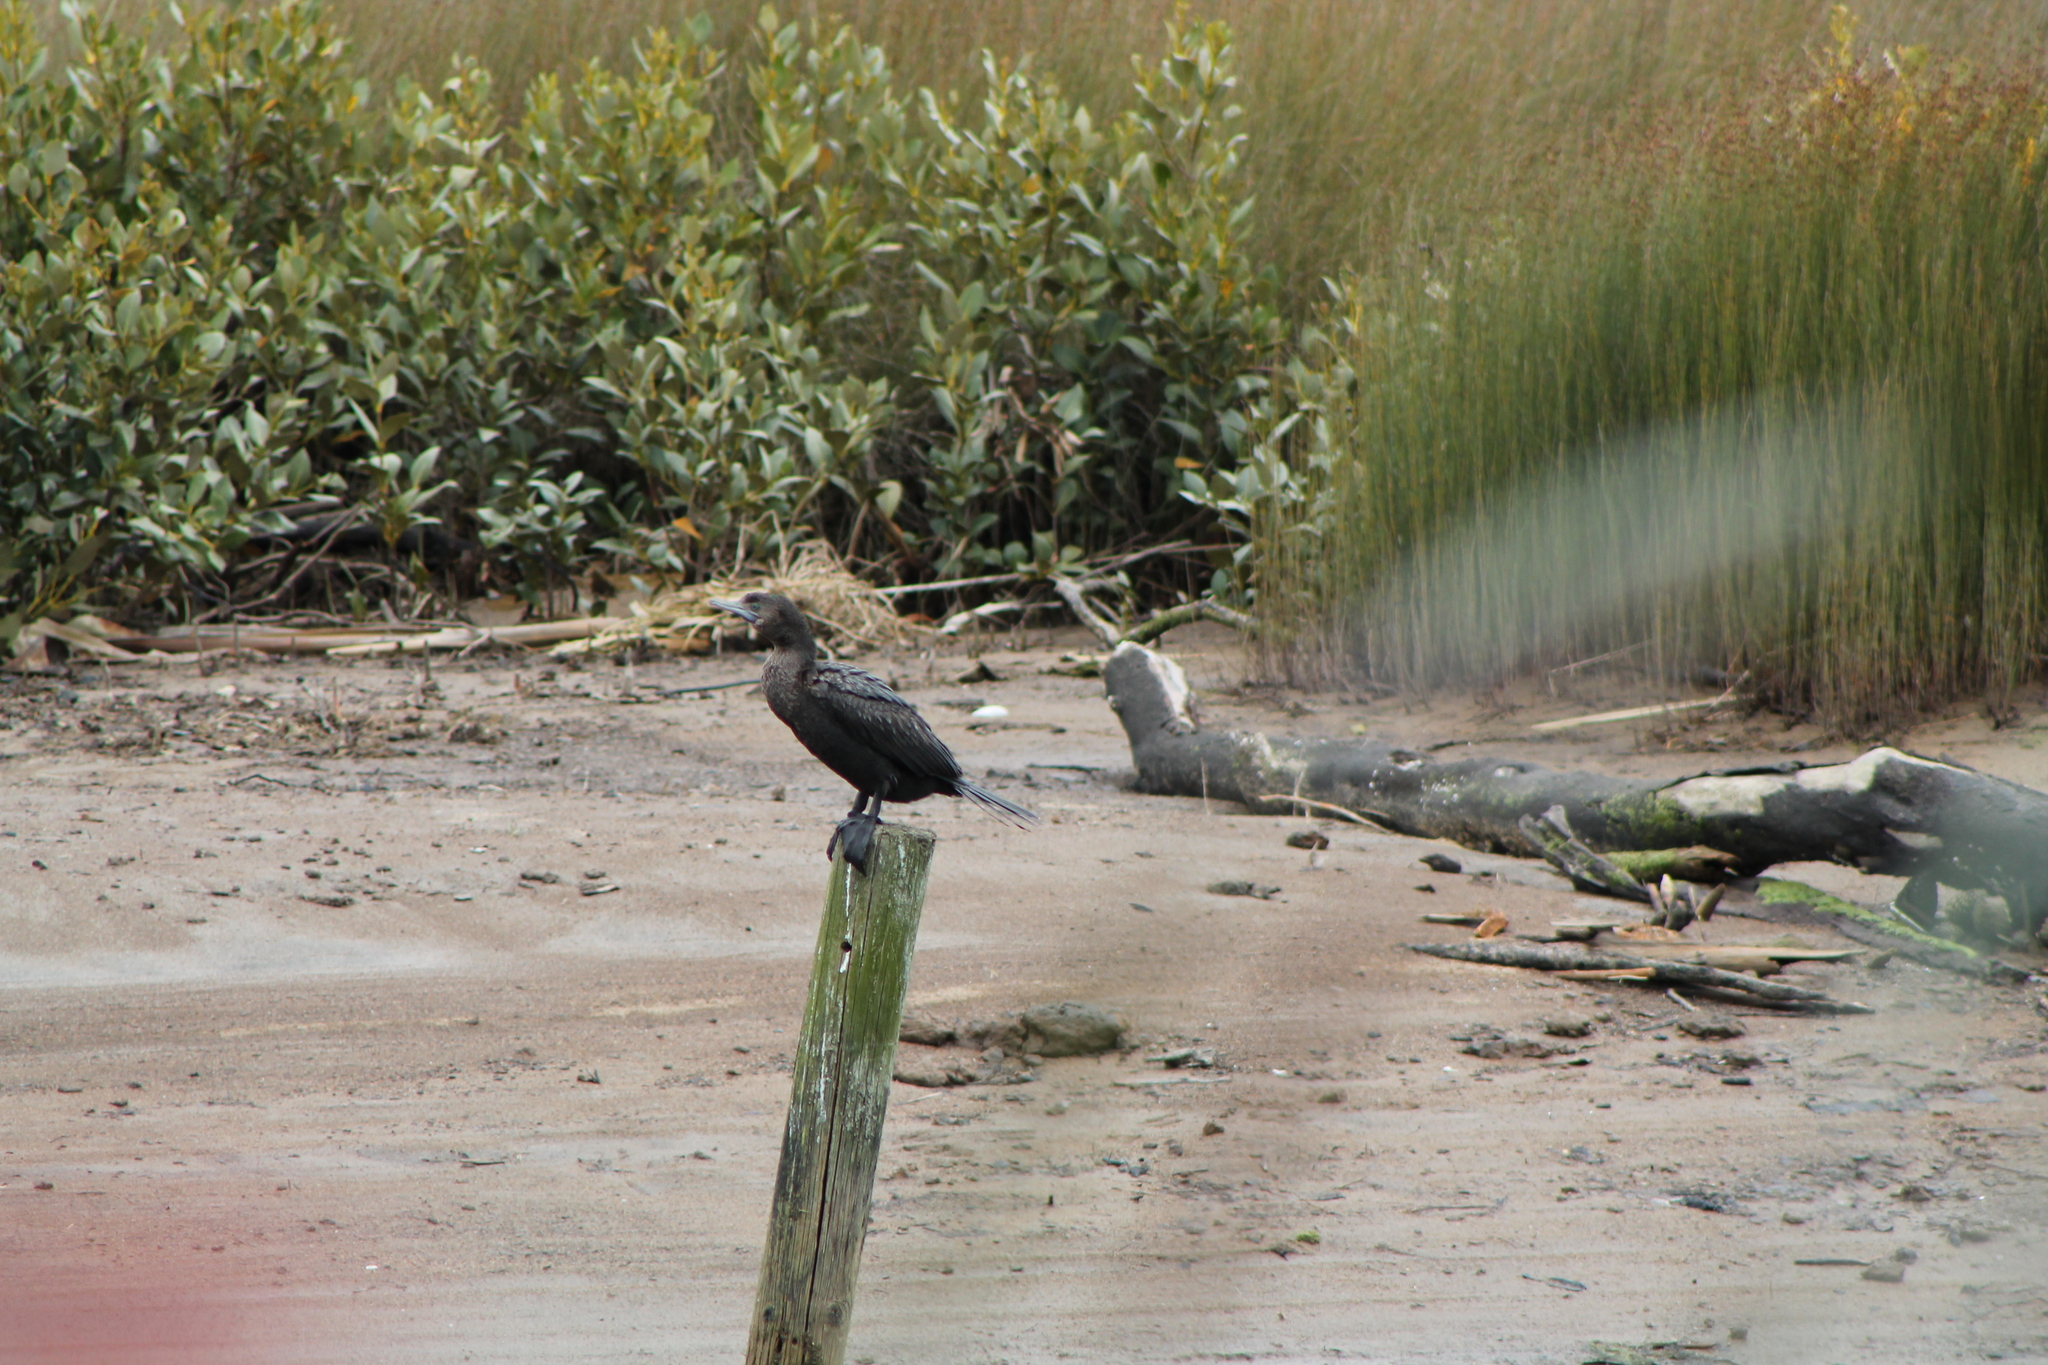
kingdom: Animalia
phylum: Chordata
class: Aves
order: Suliformes
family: Phalacrocoracidae
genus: Phalacrocorax
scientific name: Phalacrocorax sulcirostris
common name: Little black cormorant
